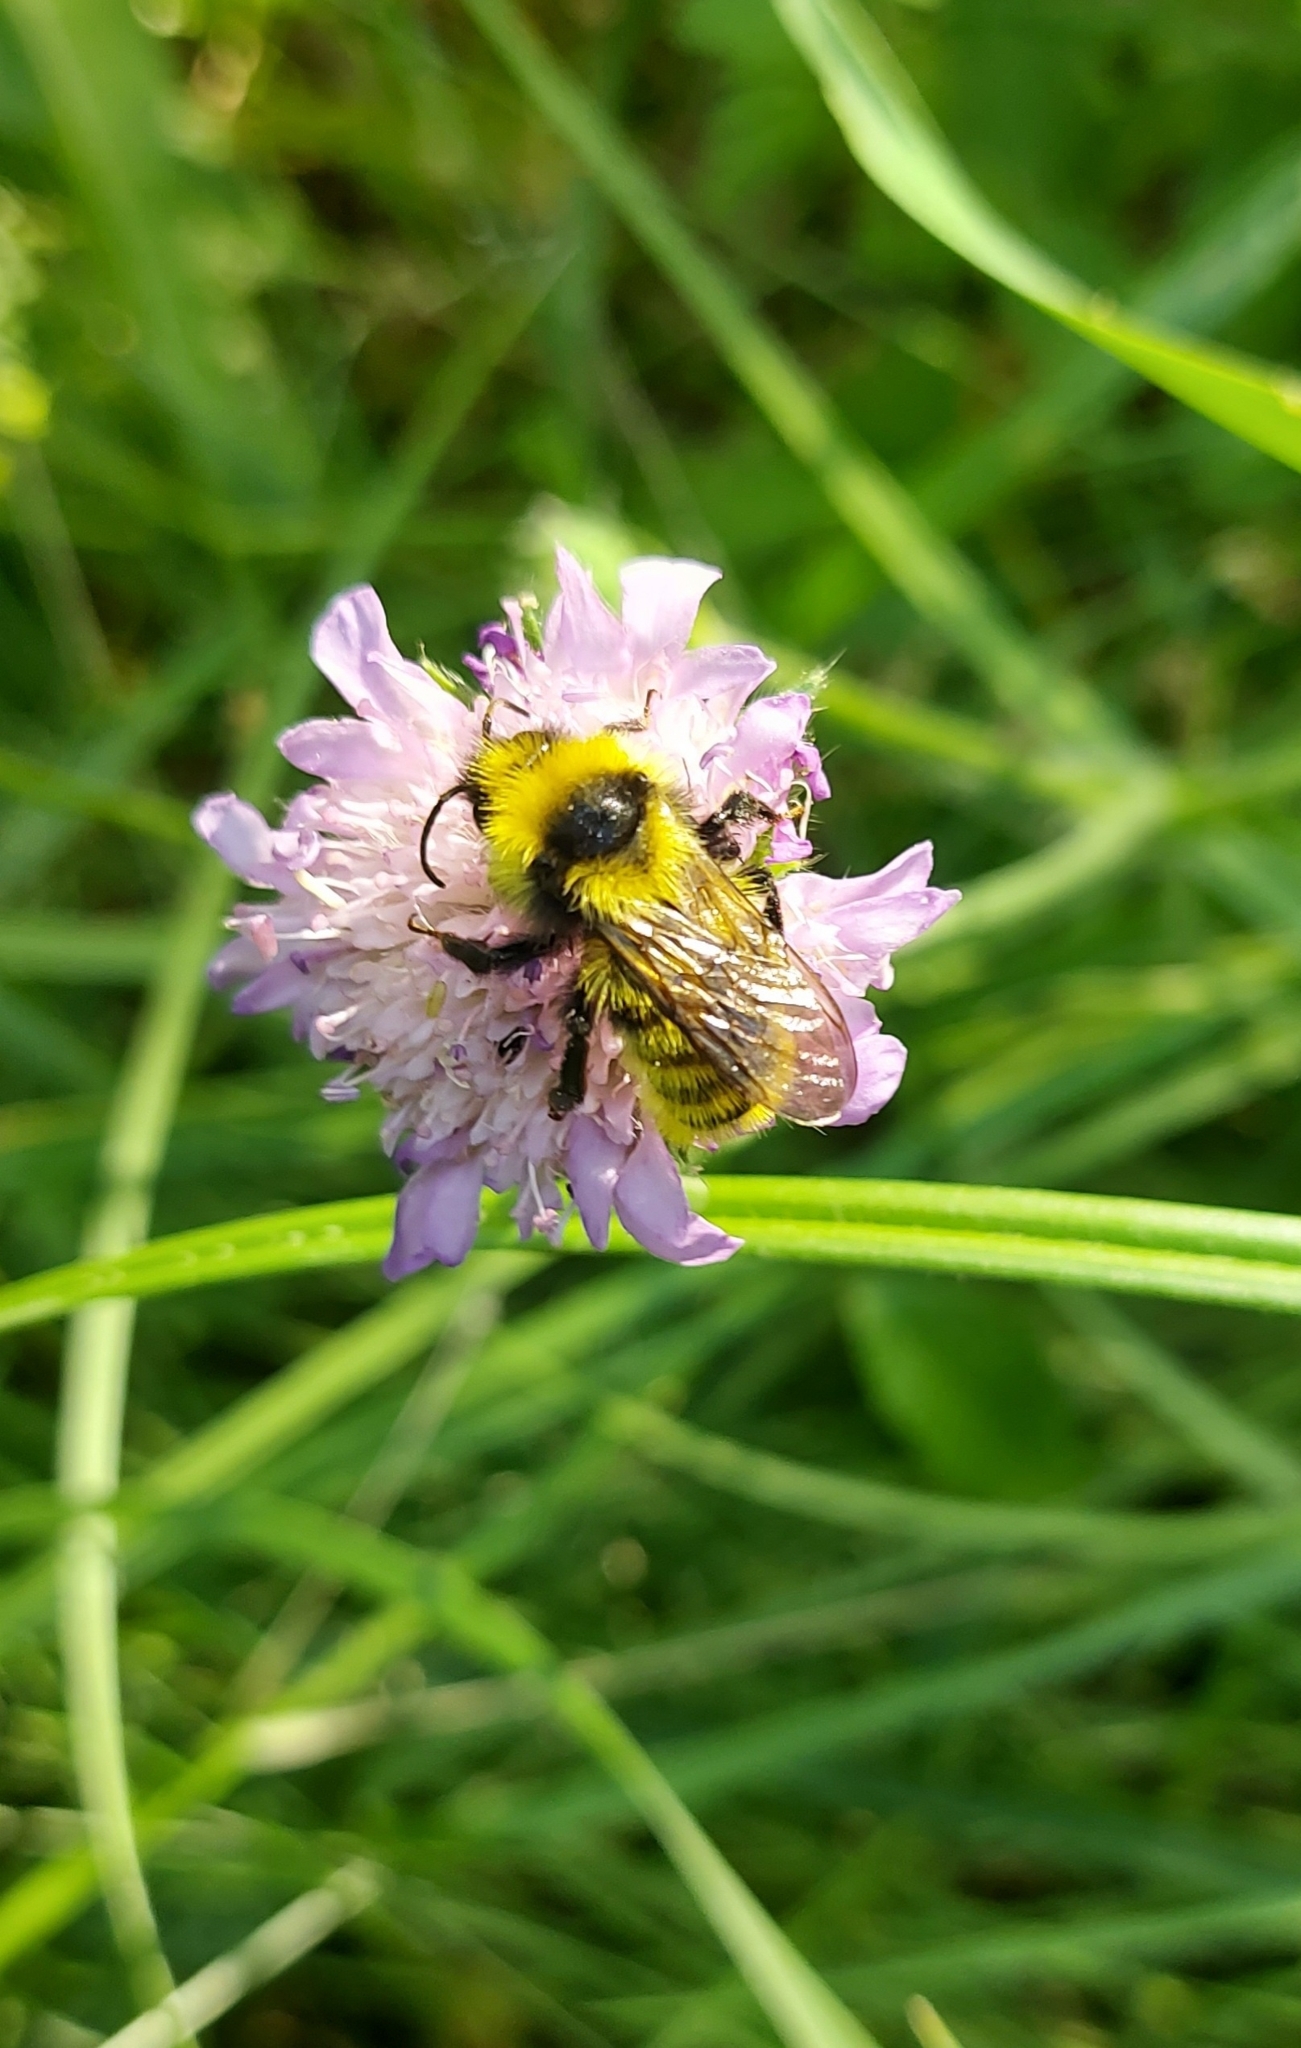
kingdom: Animalia
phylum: Arthropoda
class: Insecta
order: Hymenoptera
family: Apidae
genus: Bombus
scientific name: Bombus campestris
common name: Field cuckoo-bee
